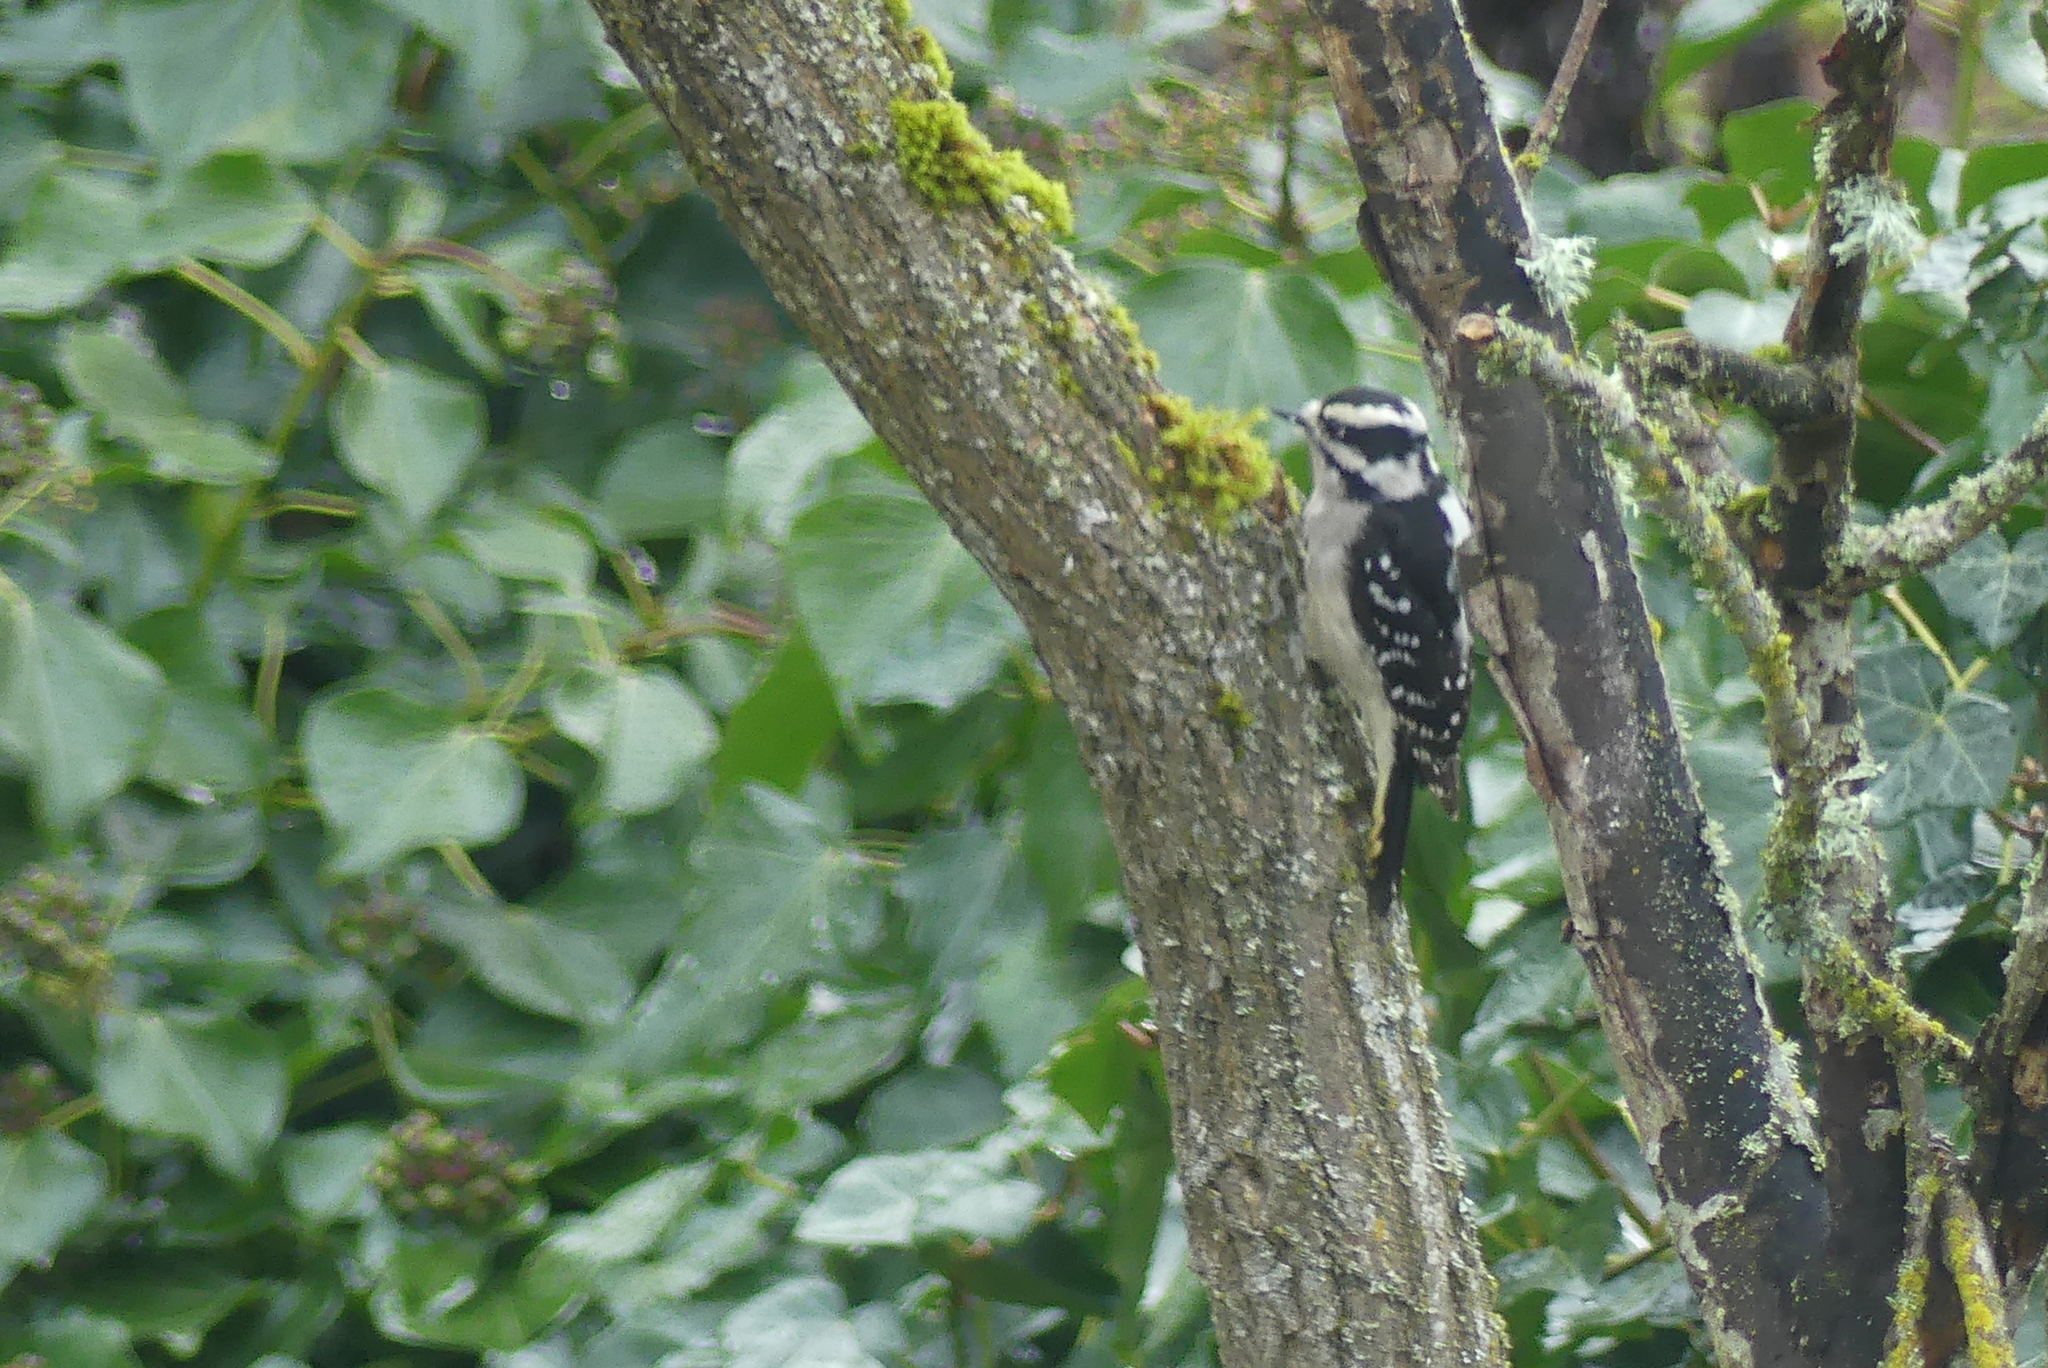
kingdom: Animalia
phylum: Chordata
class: Aves
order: Piciformes
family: Picidae
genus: Dryobates
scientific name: Dryobates pubescens
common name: Downy woodpecker
